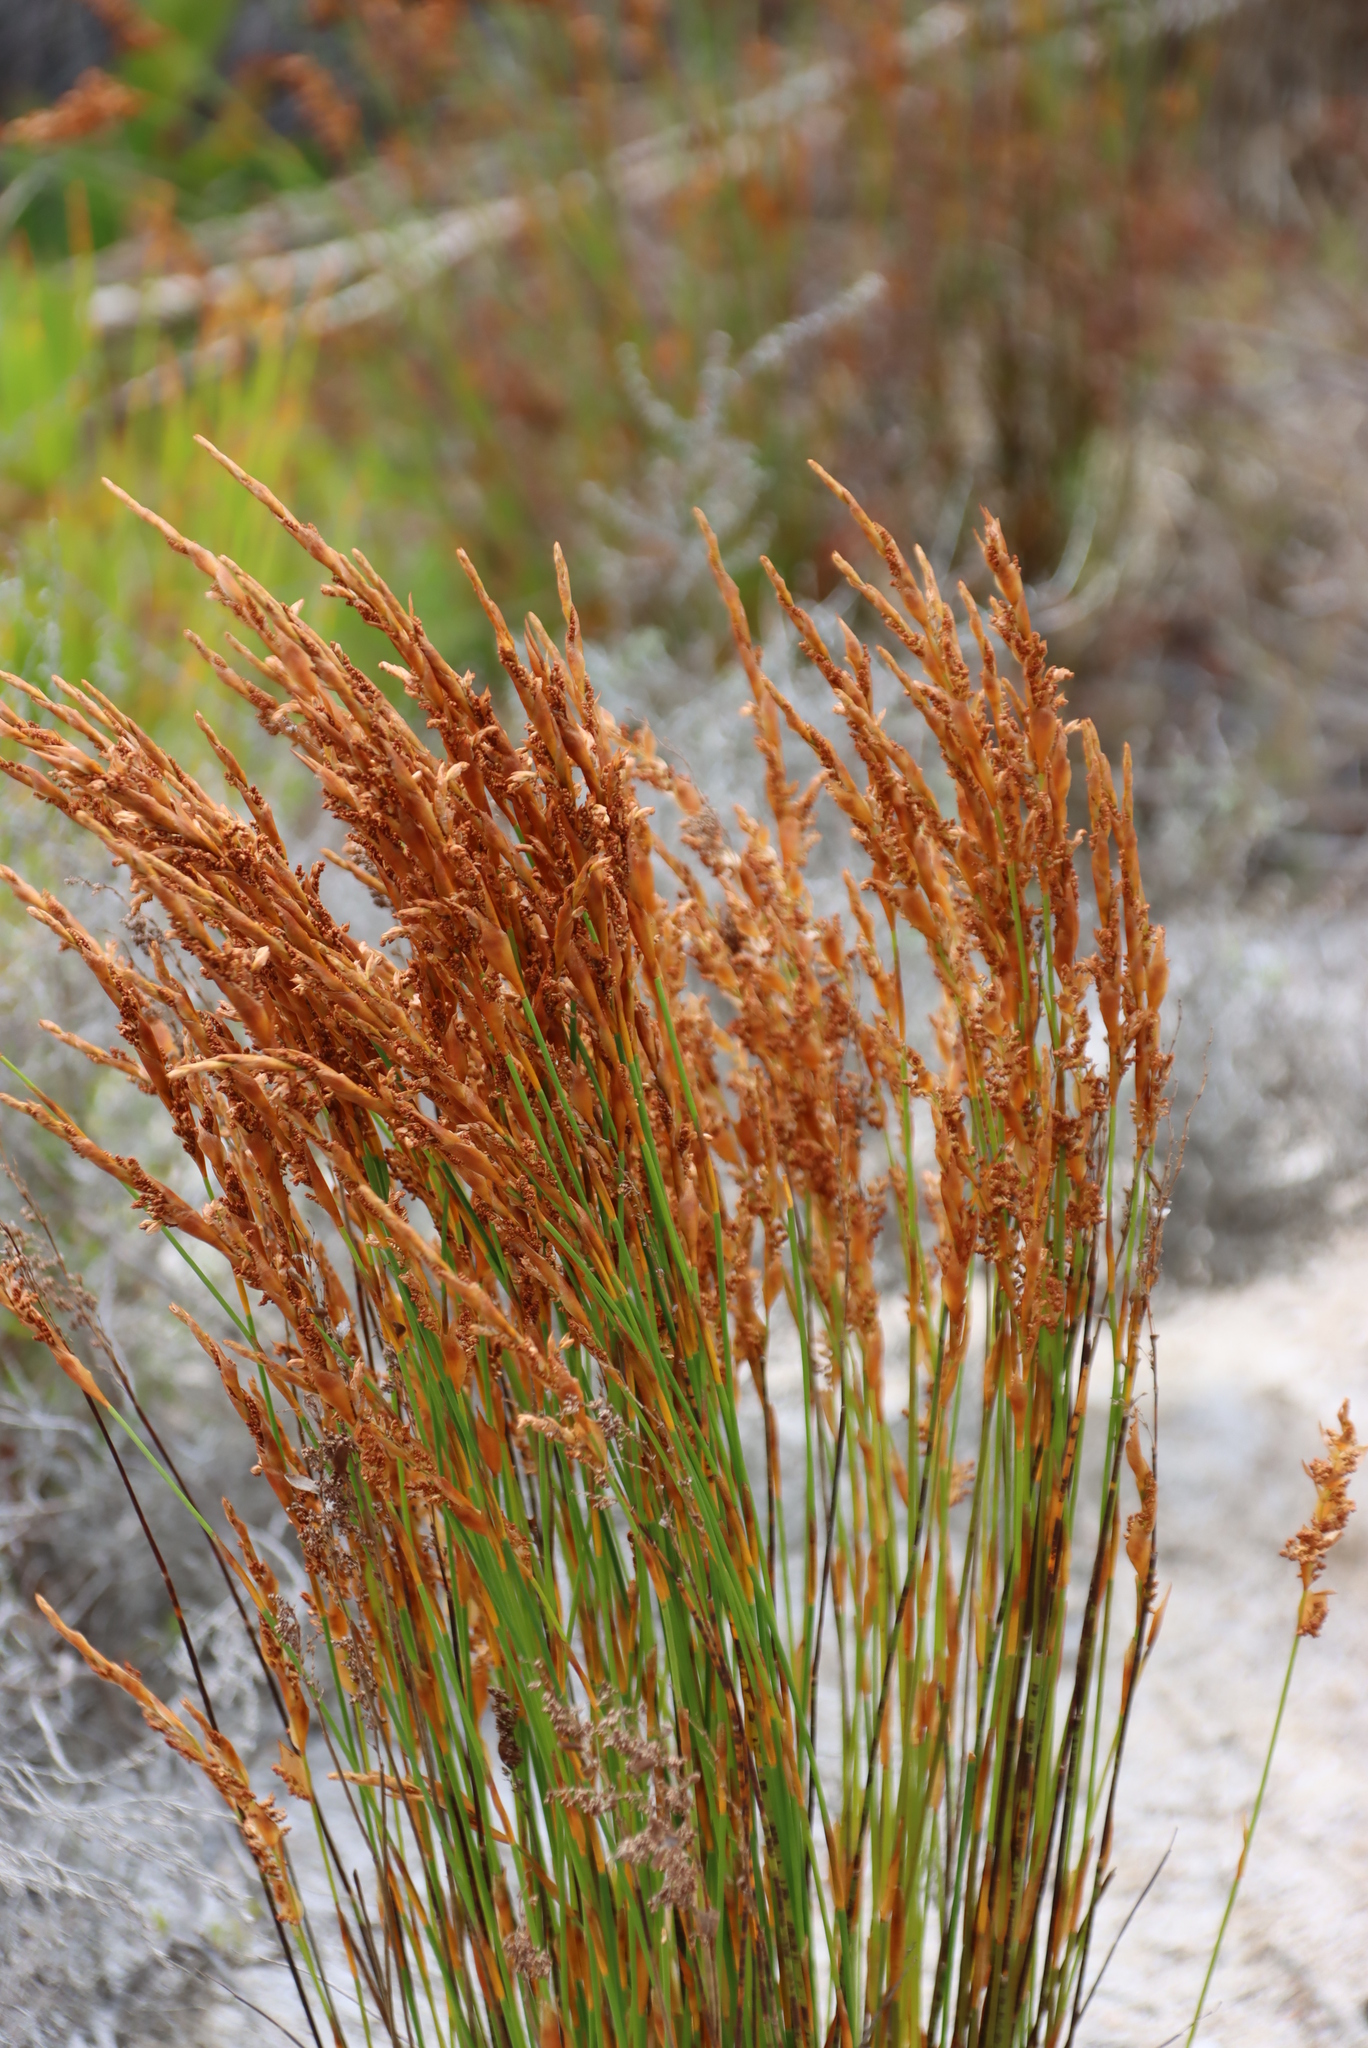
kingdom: Plantae
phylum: Tracheophyta
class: Liliopsida
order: Poales
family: Restionaceae
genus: Elegia
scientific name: Elegia spathacea
